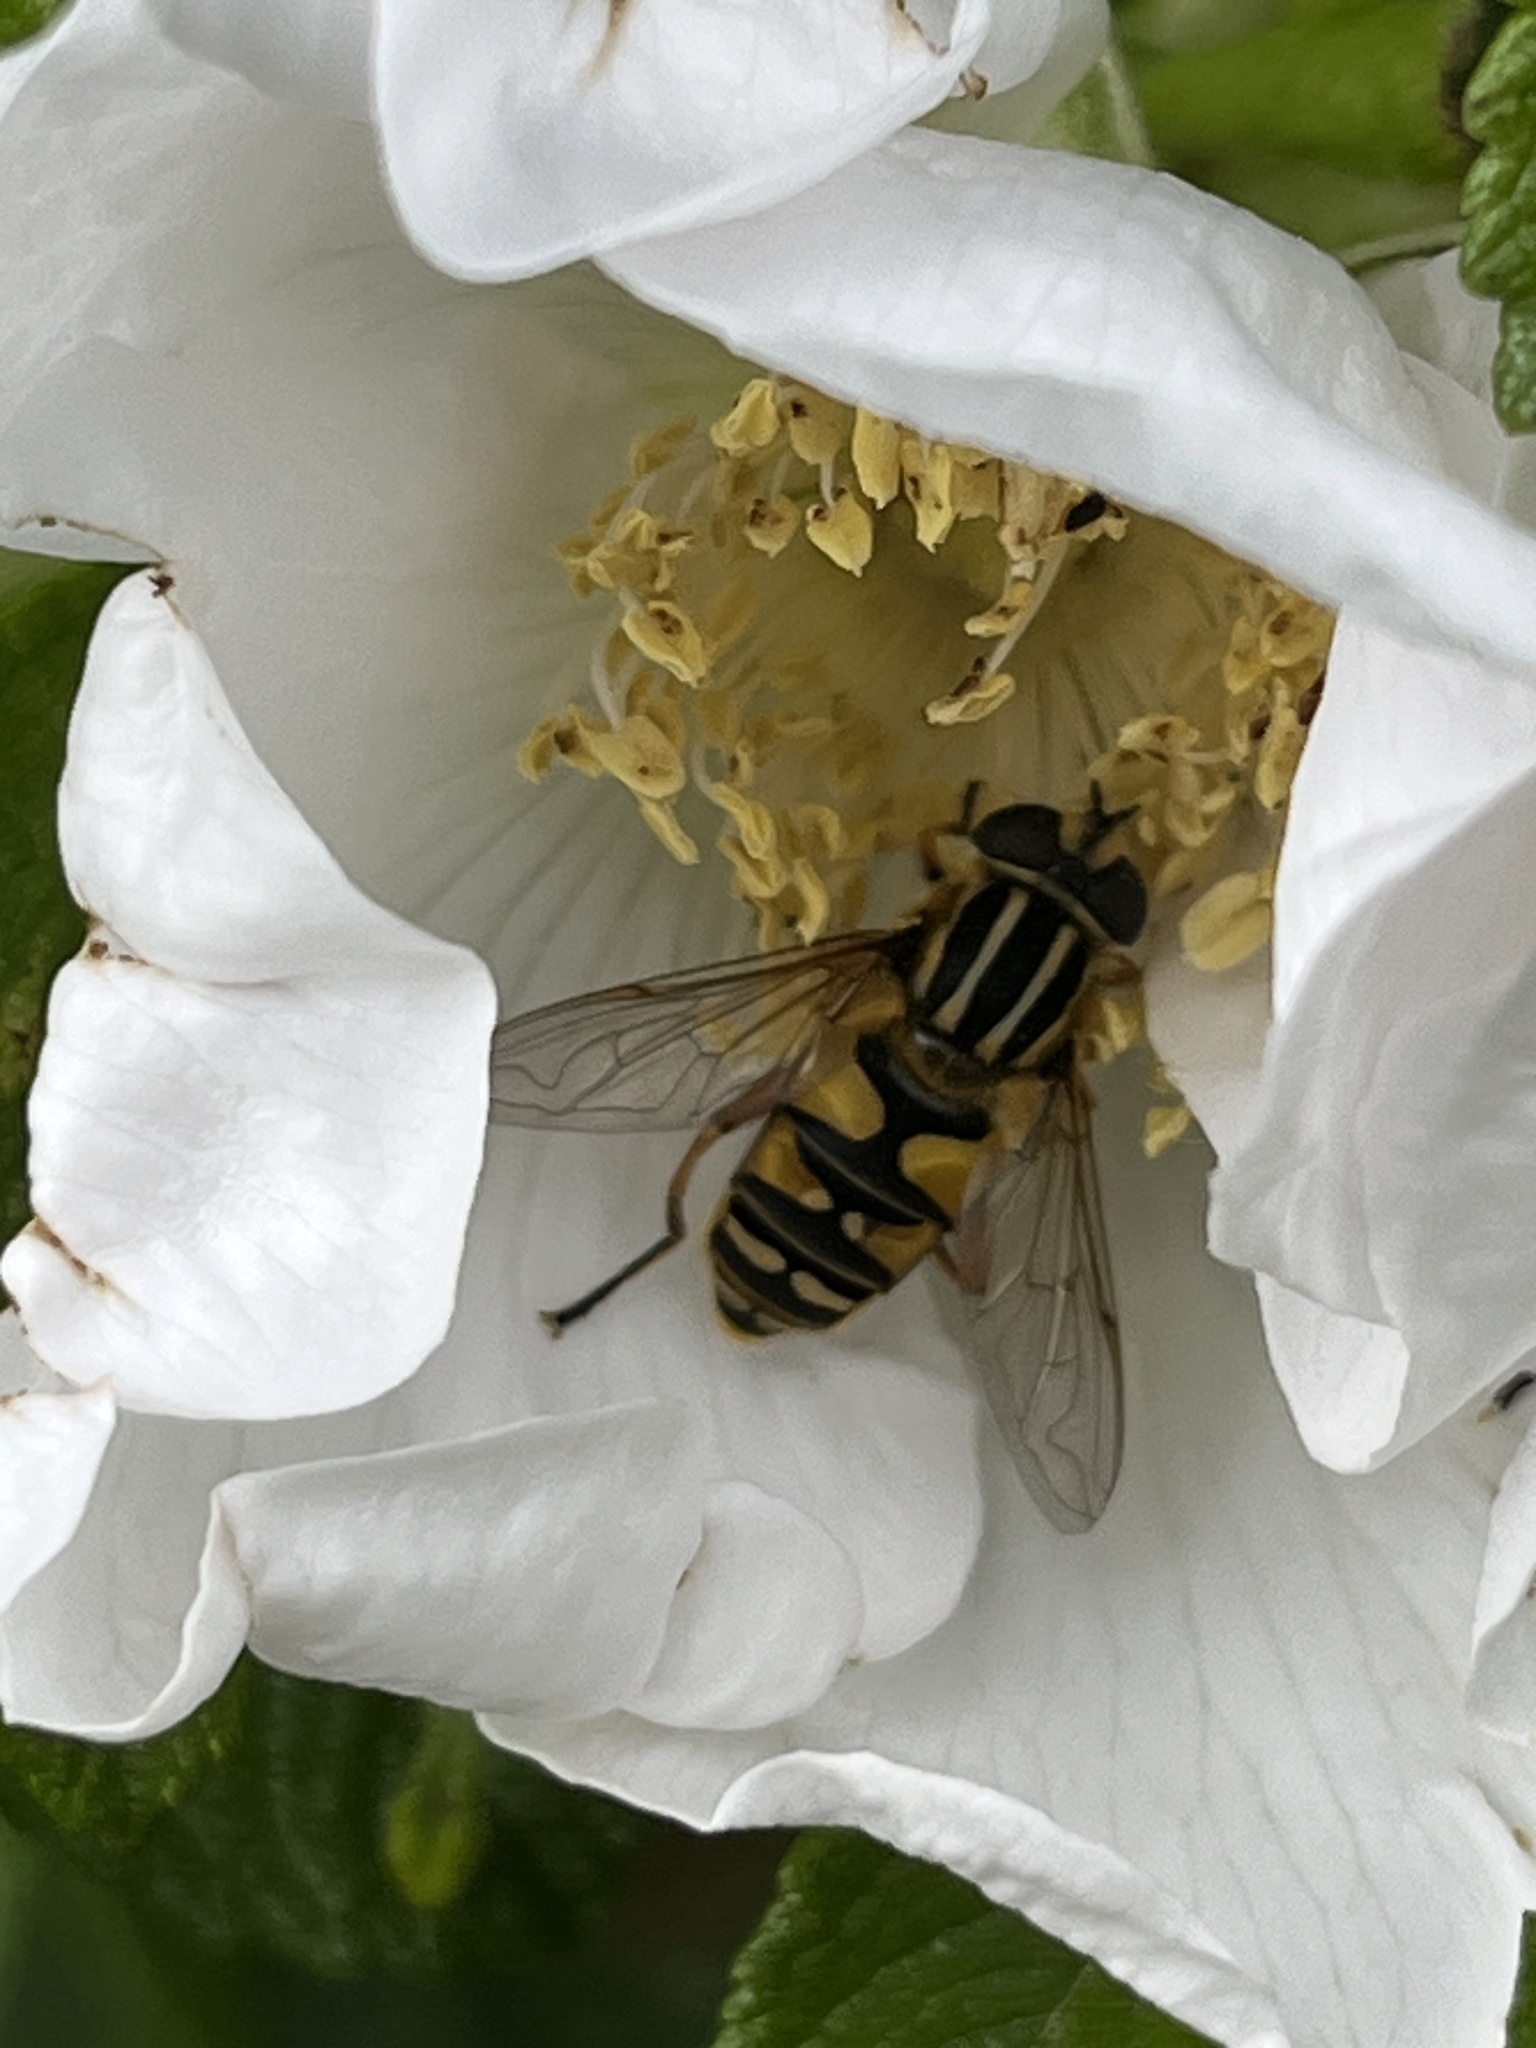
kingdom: Animalia
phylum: Arthropoda
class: Insecta
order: Diptera
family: Syrphidae
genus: Helophilus
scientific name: Helophilus pendulus
